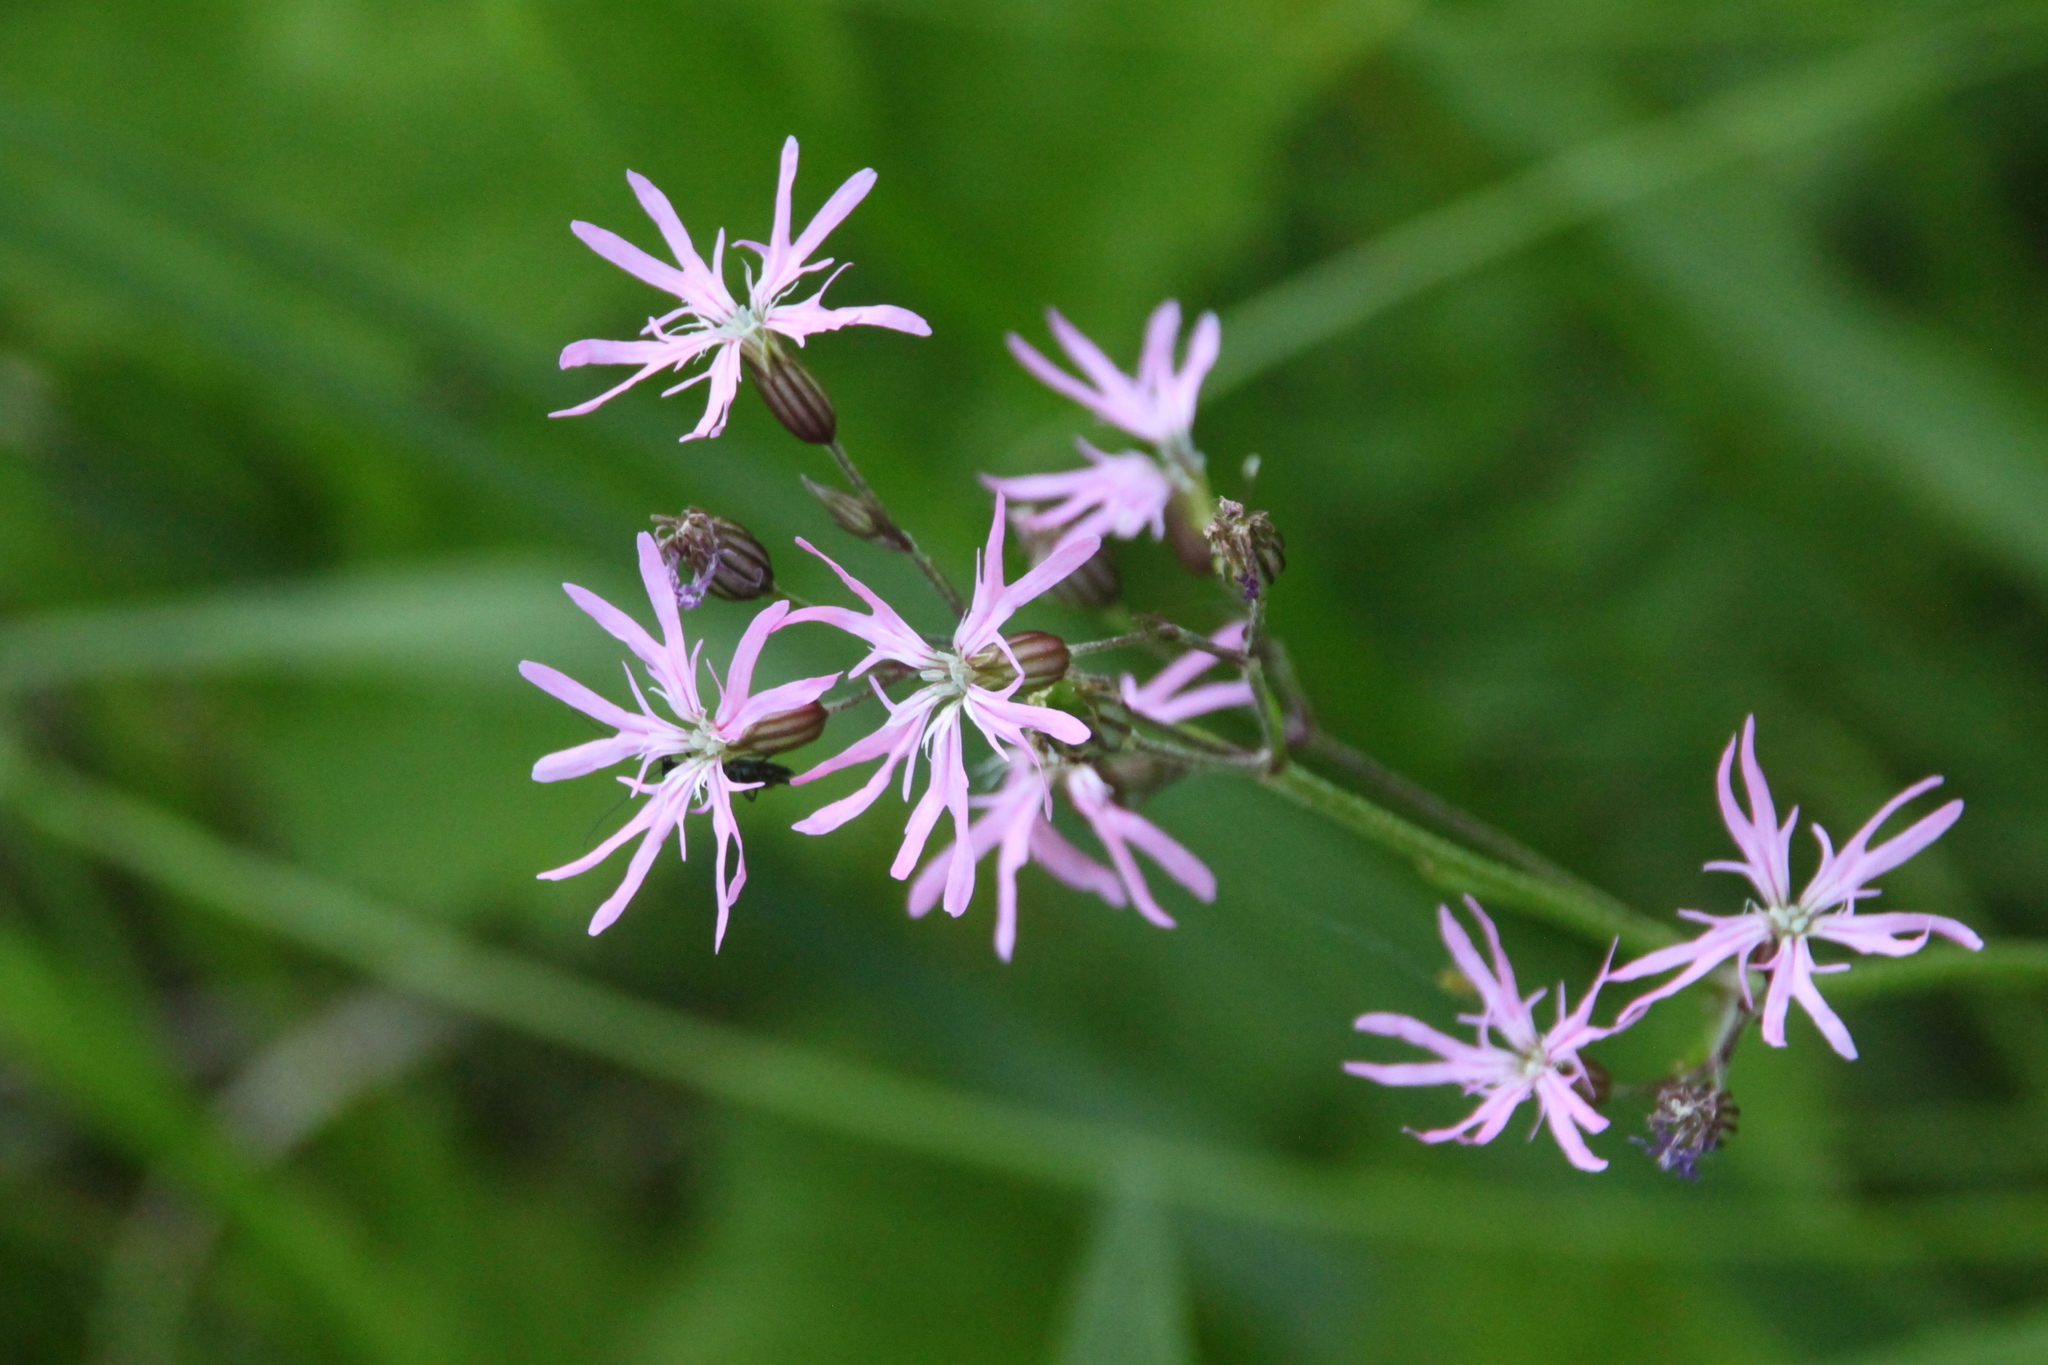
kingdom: Plantae
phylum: Tracheophyta
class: Magnoliopsida
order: Caryophyllales
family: Caryophyllaceae
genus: Silene
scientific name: Silene flos-cuculi
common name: Ragged-robin
